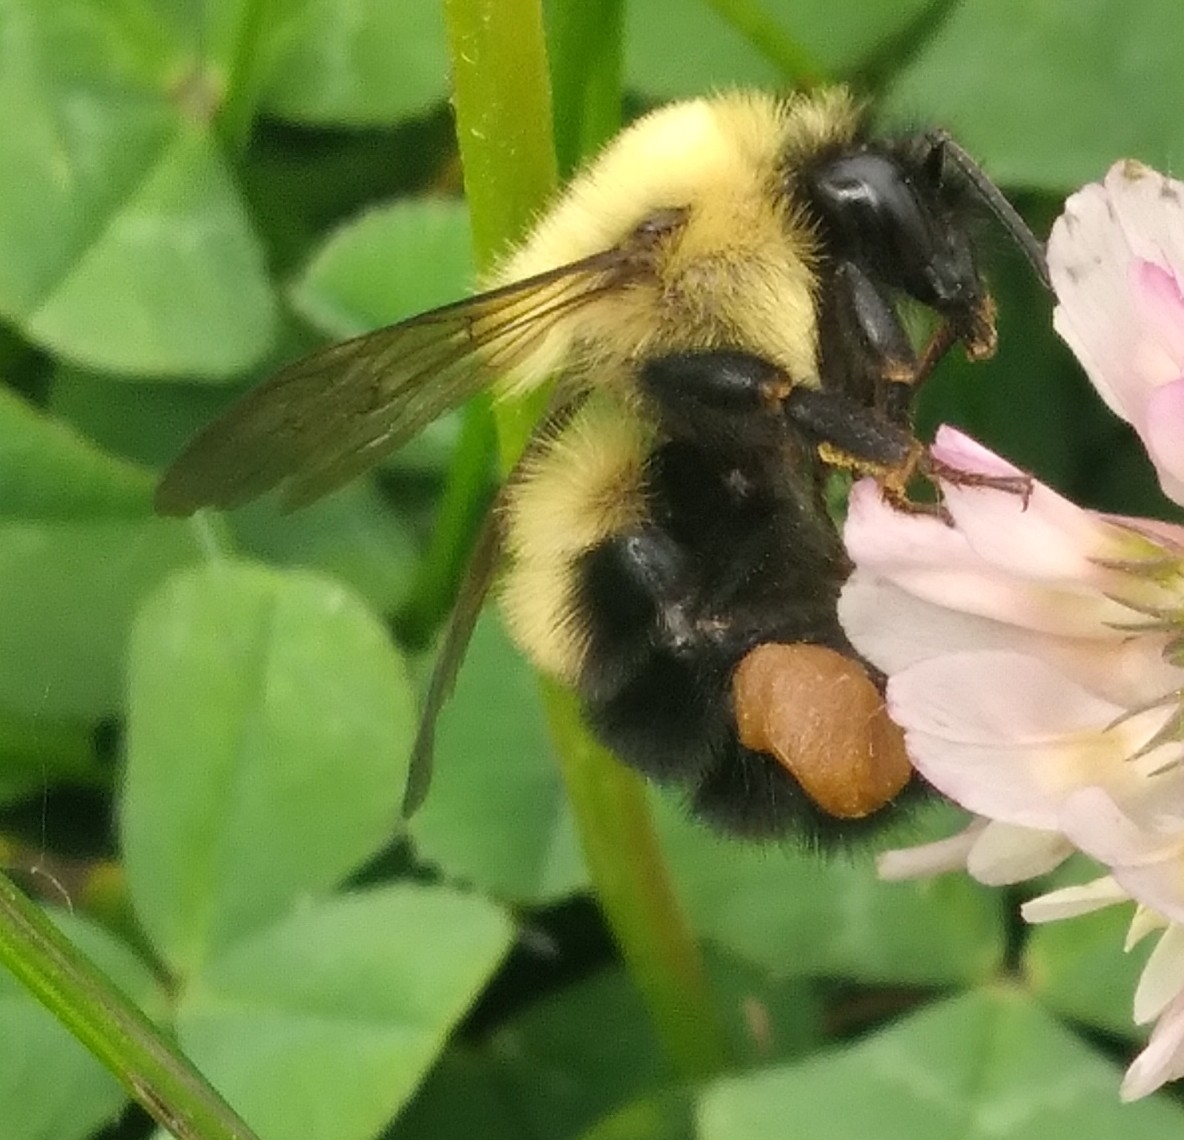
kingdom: Animalia
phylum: Arthropoda
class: Insecta
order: Hymenoptera
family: Apidae
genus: Bombus
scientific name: Bombus bimaculatus
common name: Two-spotted bumble bee
